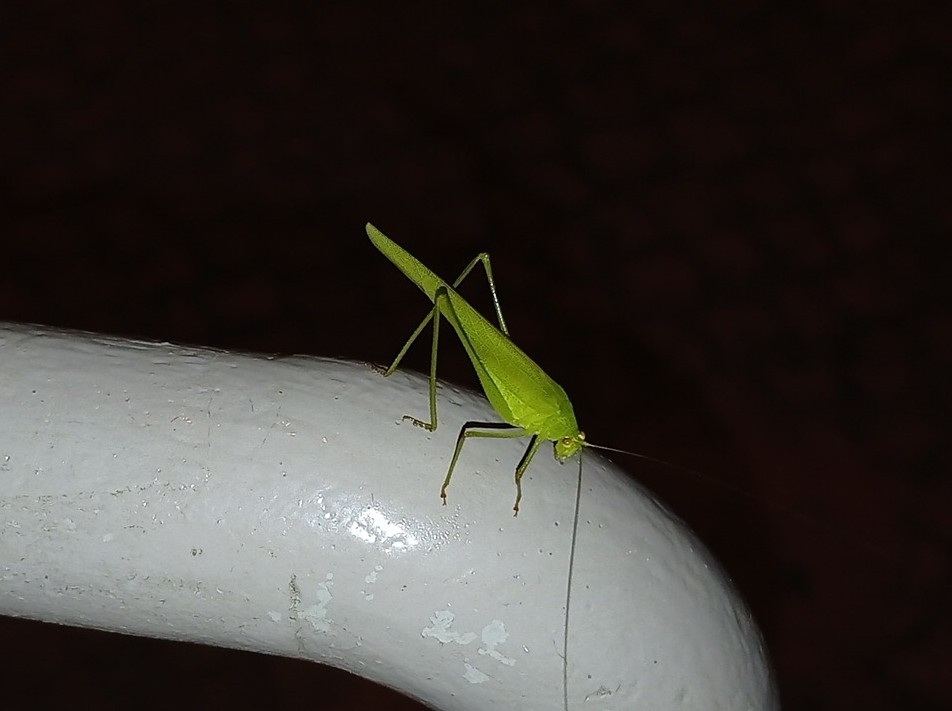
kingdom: Animalia
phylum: Arthropoda
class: Insecta
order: Orthoptera
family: Tettigoniidae
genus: Phaneroptera
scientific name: Phaneroptera nana
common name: Southern sickle bush-cricket
